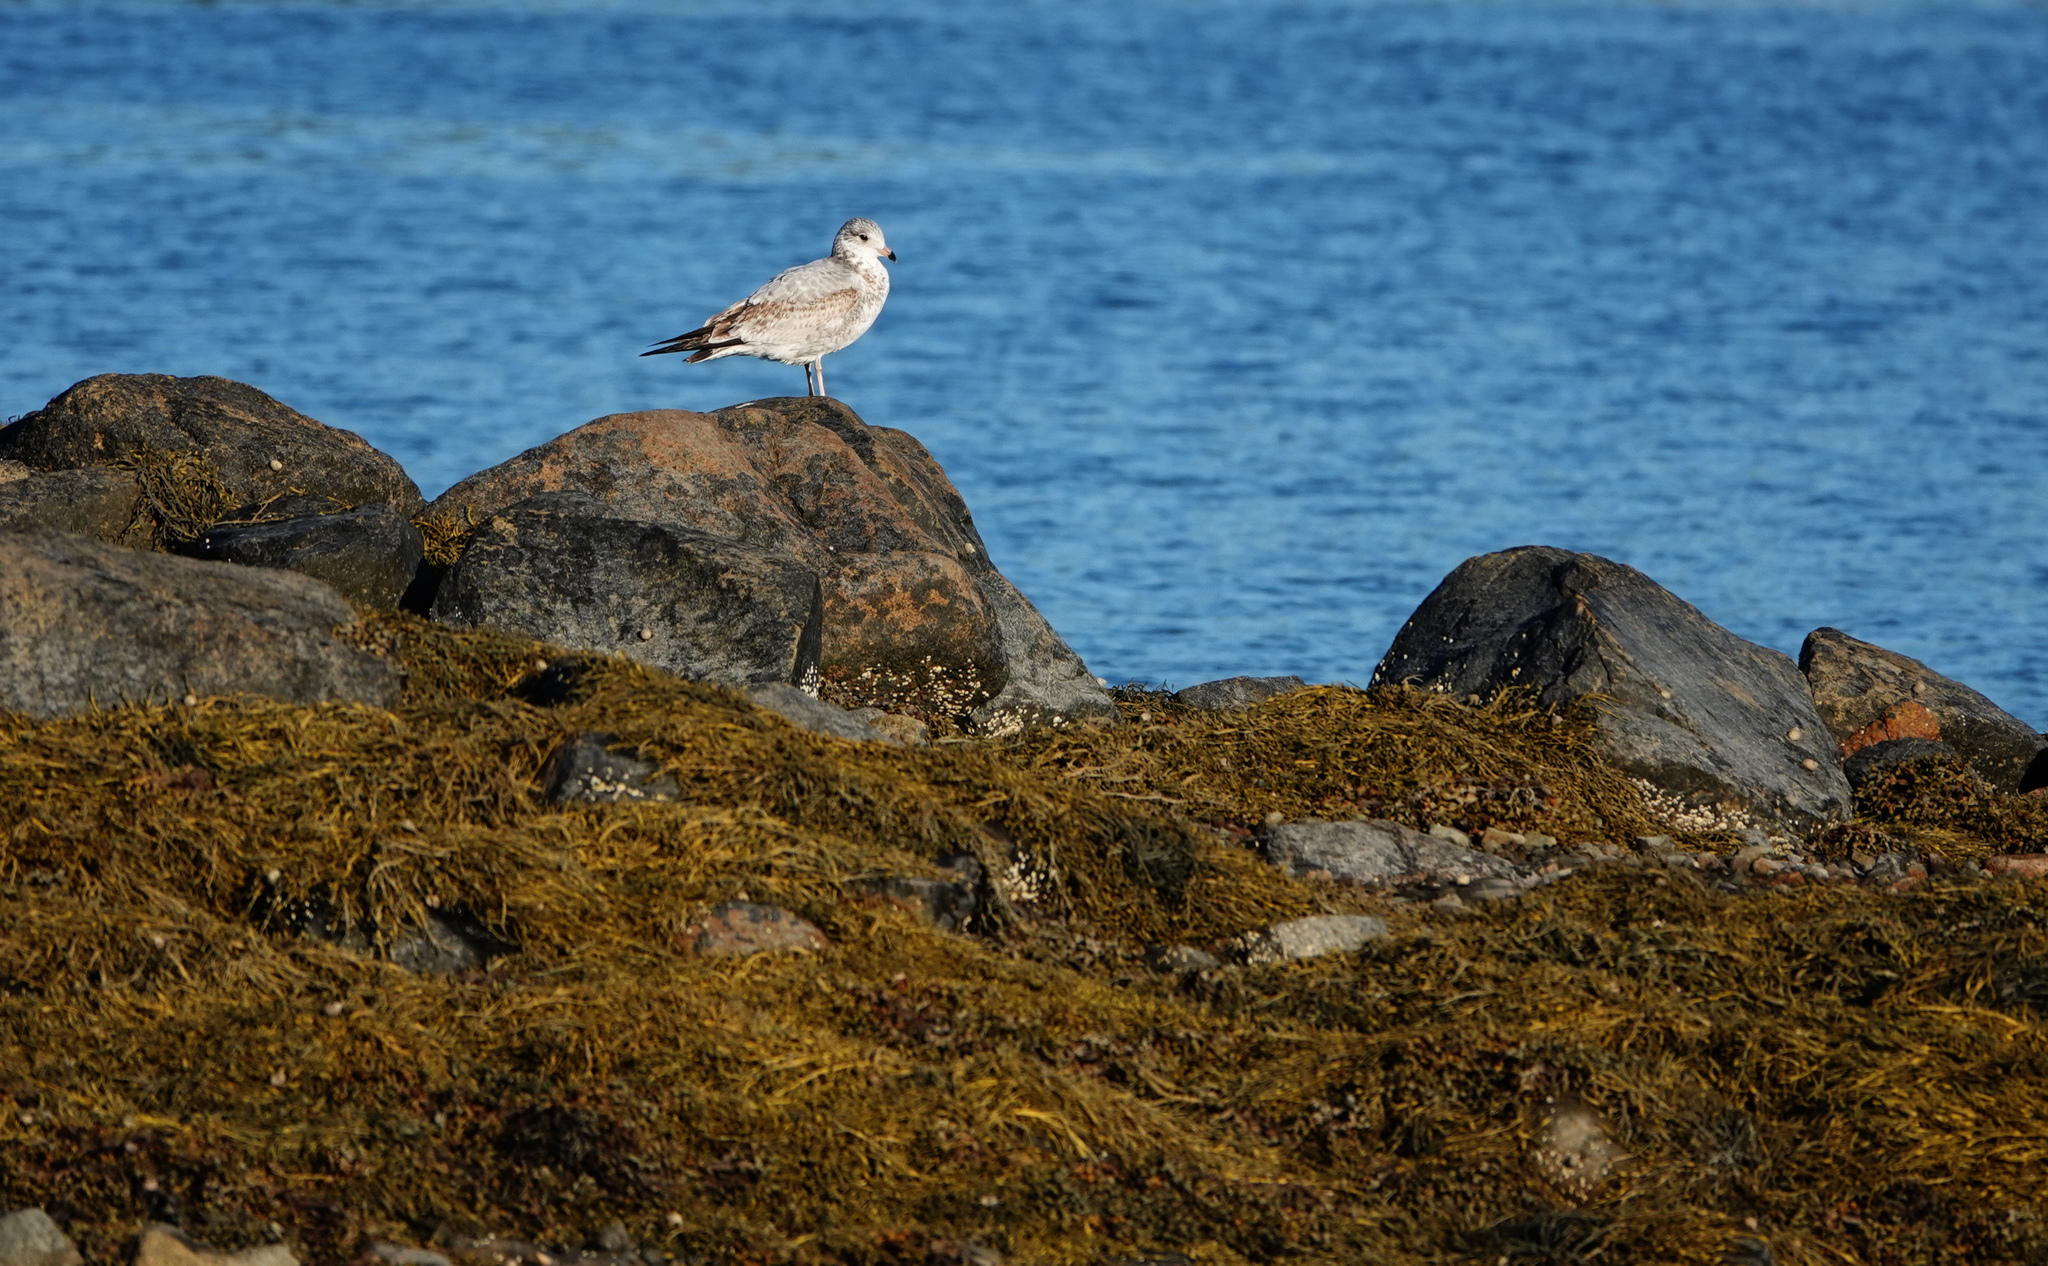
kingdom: Animalia
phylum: Chordata
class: Aves
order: Charadriiformes
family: Laridae
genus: Larus
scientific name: Larus delawarensis
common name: Ring-billed gull
